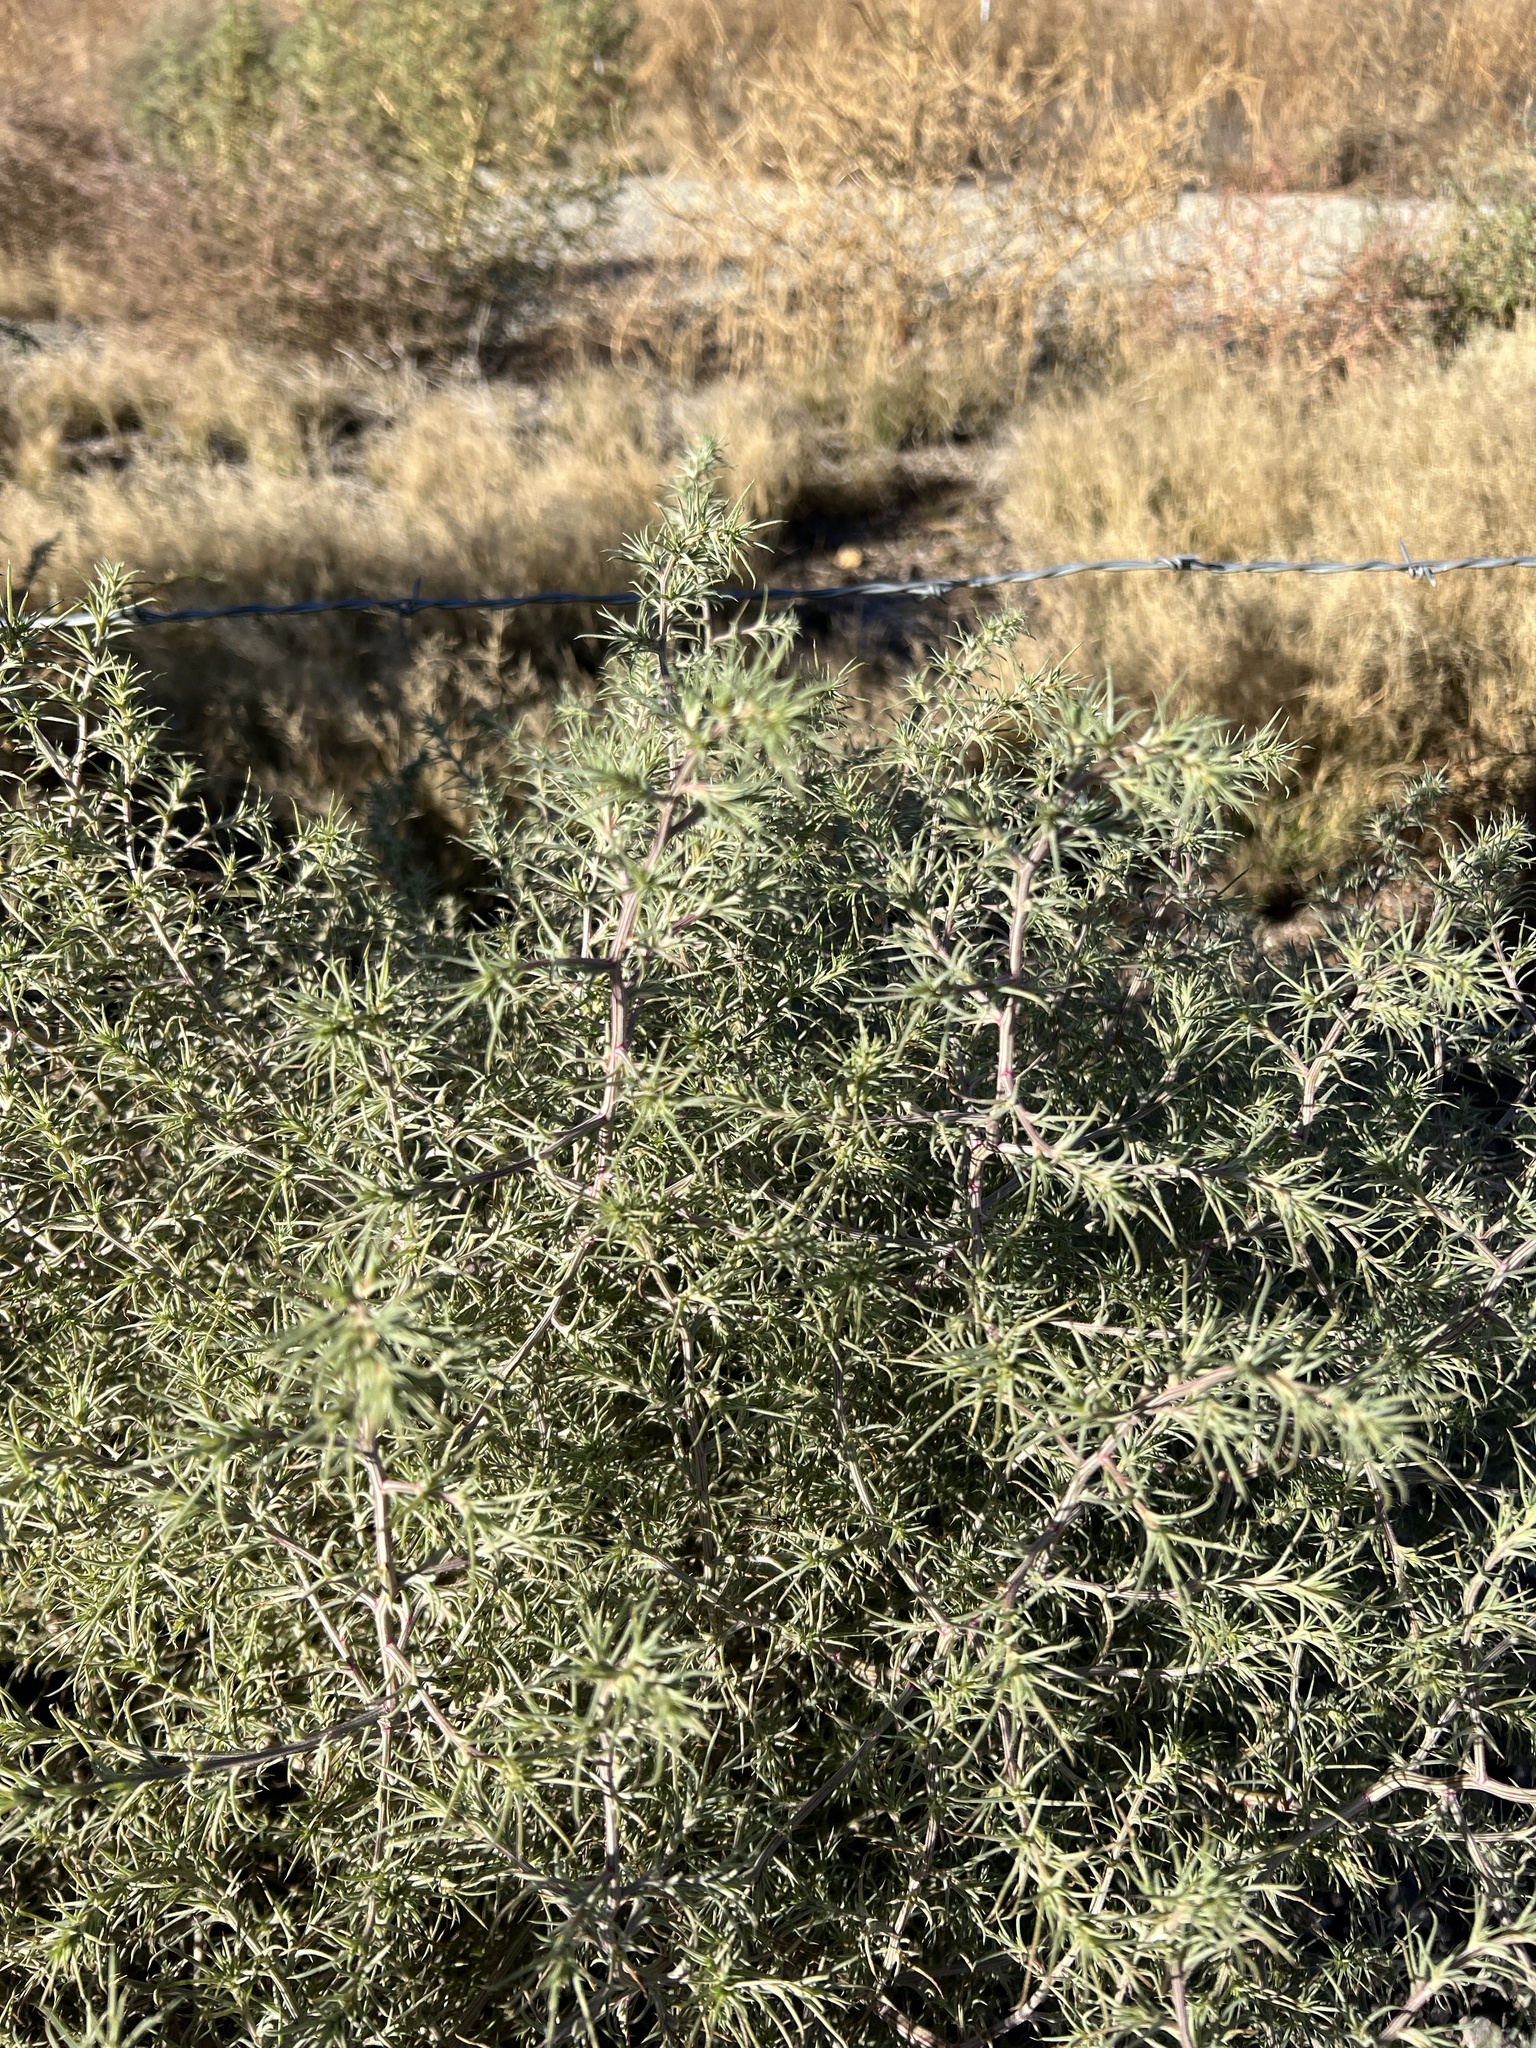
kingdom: Plantae
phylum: Tracheophyta
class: Magnoliopsida
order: Caryophyllales
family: Amaranthaceae
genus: Salsola
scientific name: Salsola tragus
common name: Prickly russian thistle
